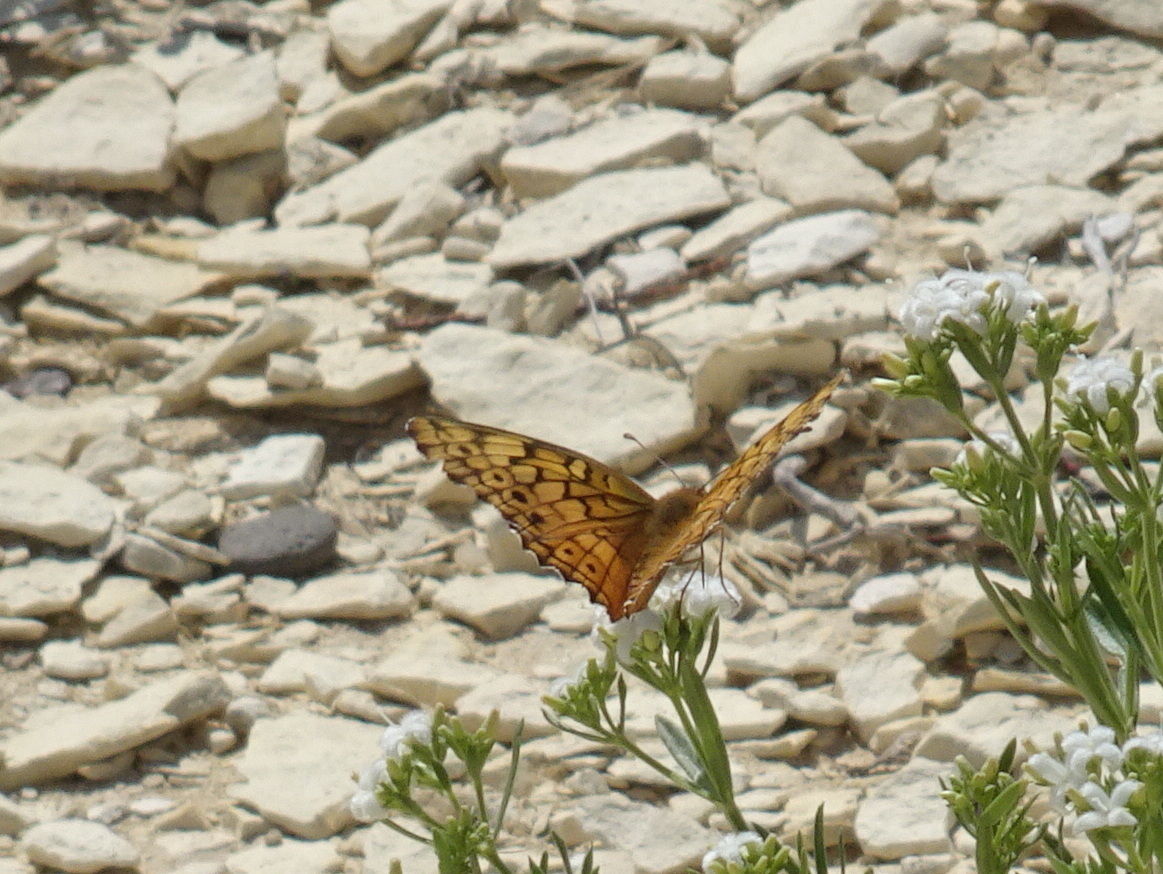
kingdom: Animalia
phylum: Arthropoda
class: Insecta
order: Lepidoptera
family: Nymphalidae
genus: Euptoieta
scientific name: Euptoieta claudia
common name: Variegated fritillary
